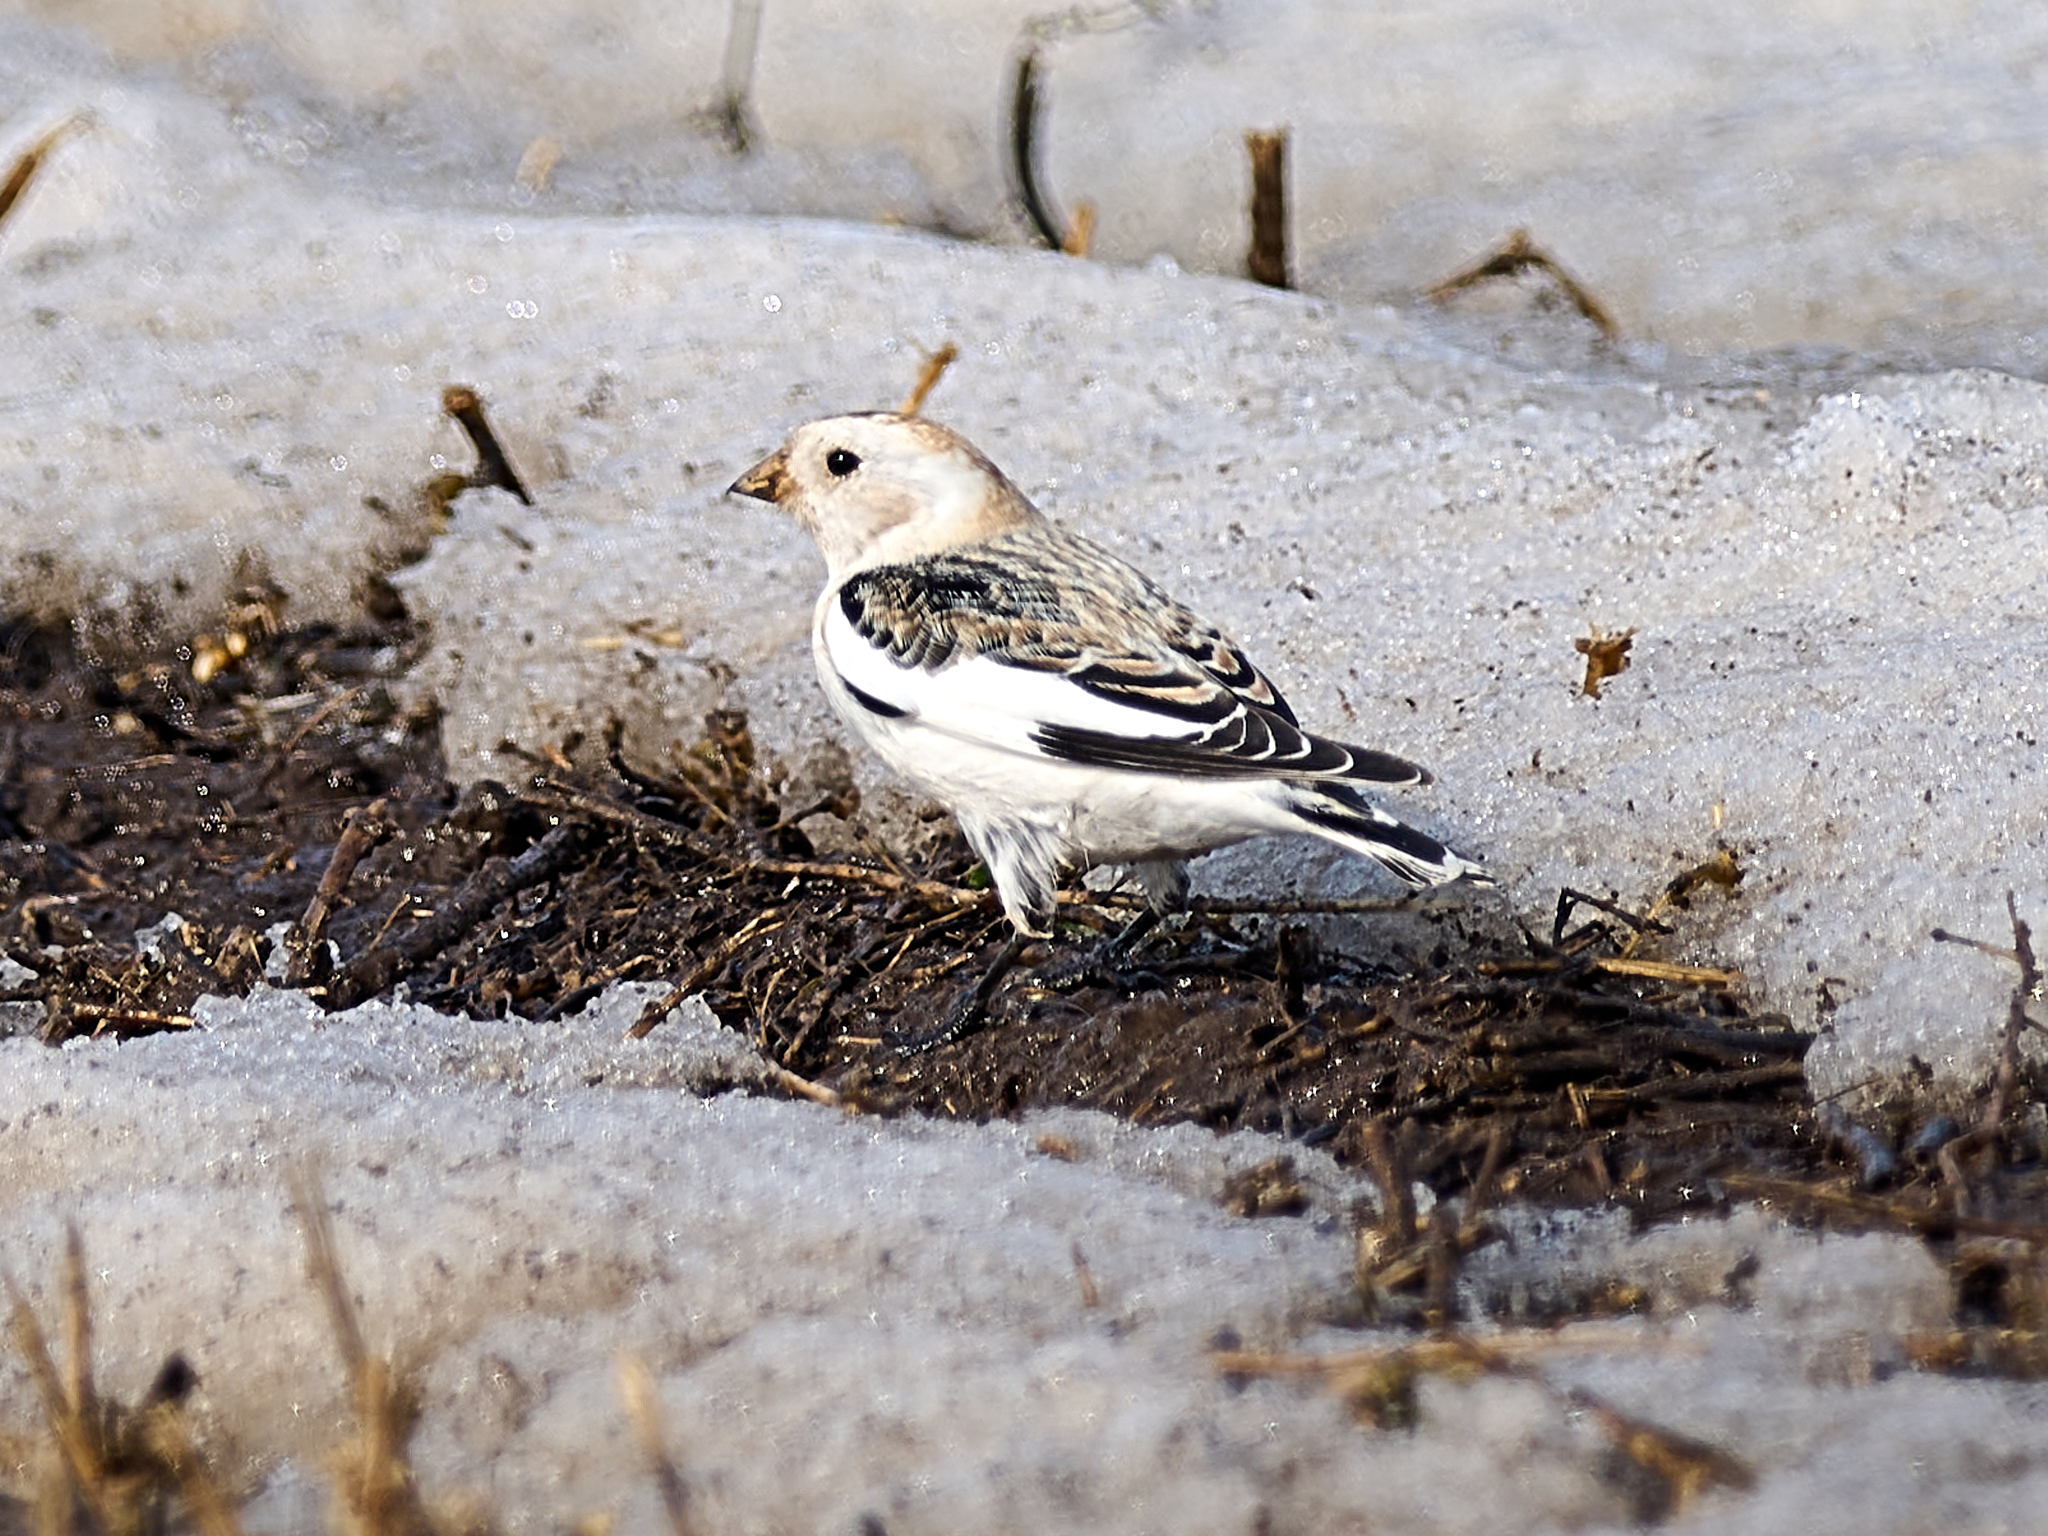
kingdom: Animalia
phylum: Chordata
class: Aves
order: Passeriformes
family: Calcariidae
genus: Plectrophenax
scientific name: Plectrophenax nivalis
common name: Snow bunting
